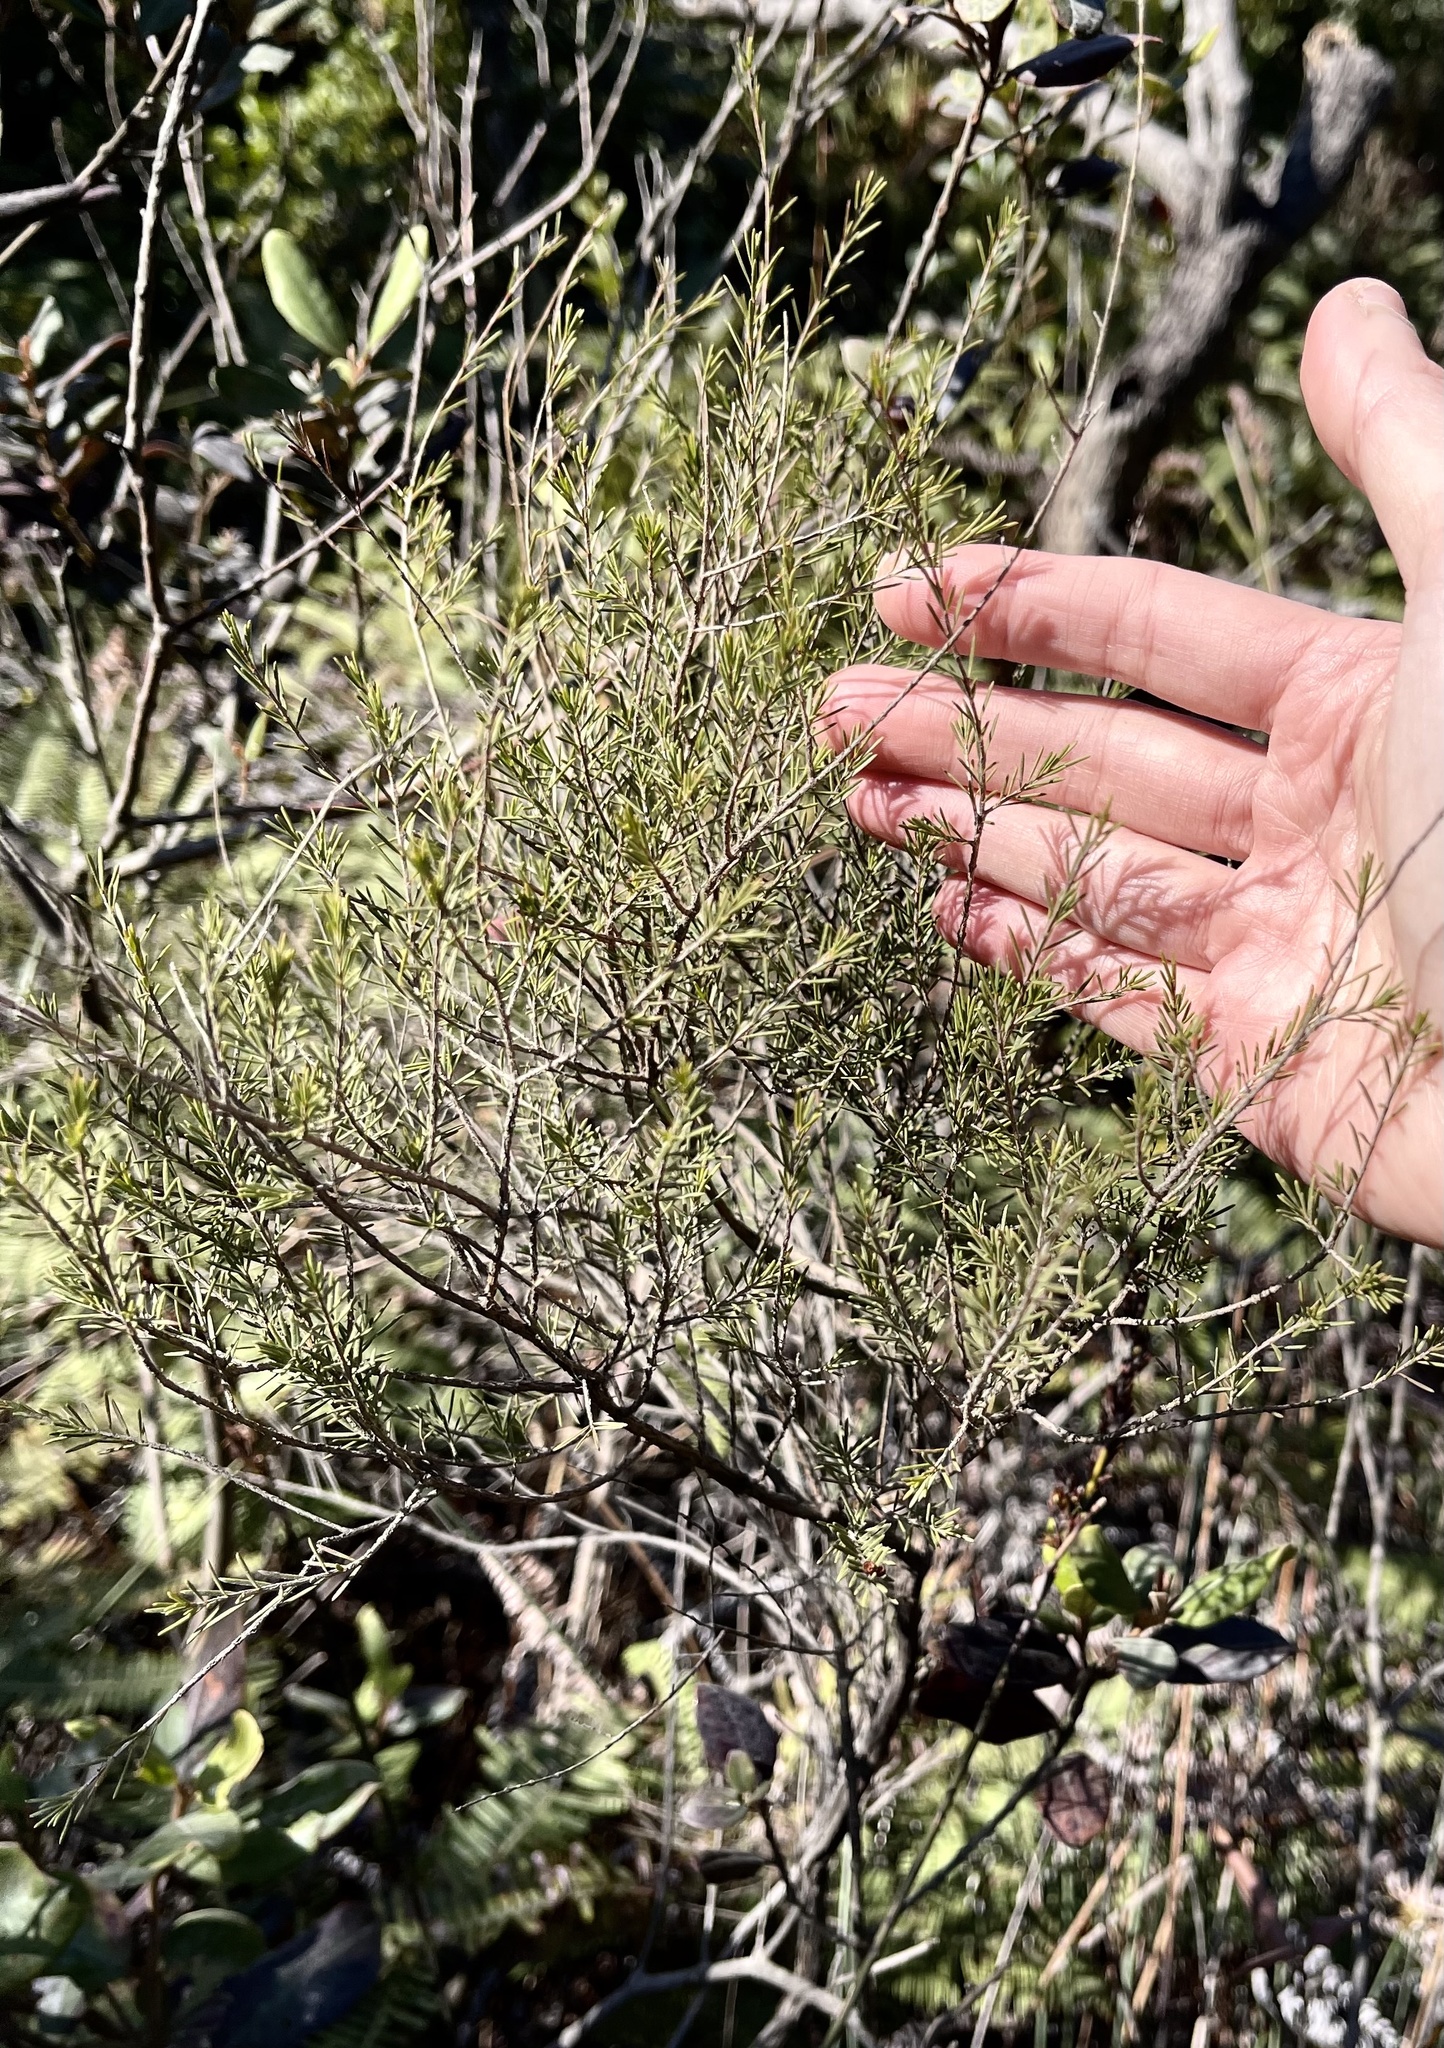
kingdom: Plantae
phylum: Tracheophyta
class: Magnoliopsida
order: Myrtales
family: Myrtaceae
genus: Baeckea
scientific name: Baeckea frutescens
